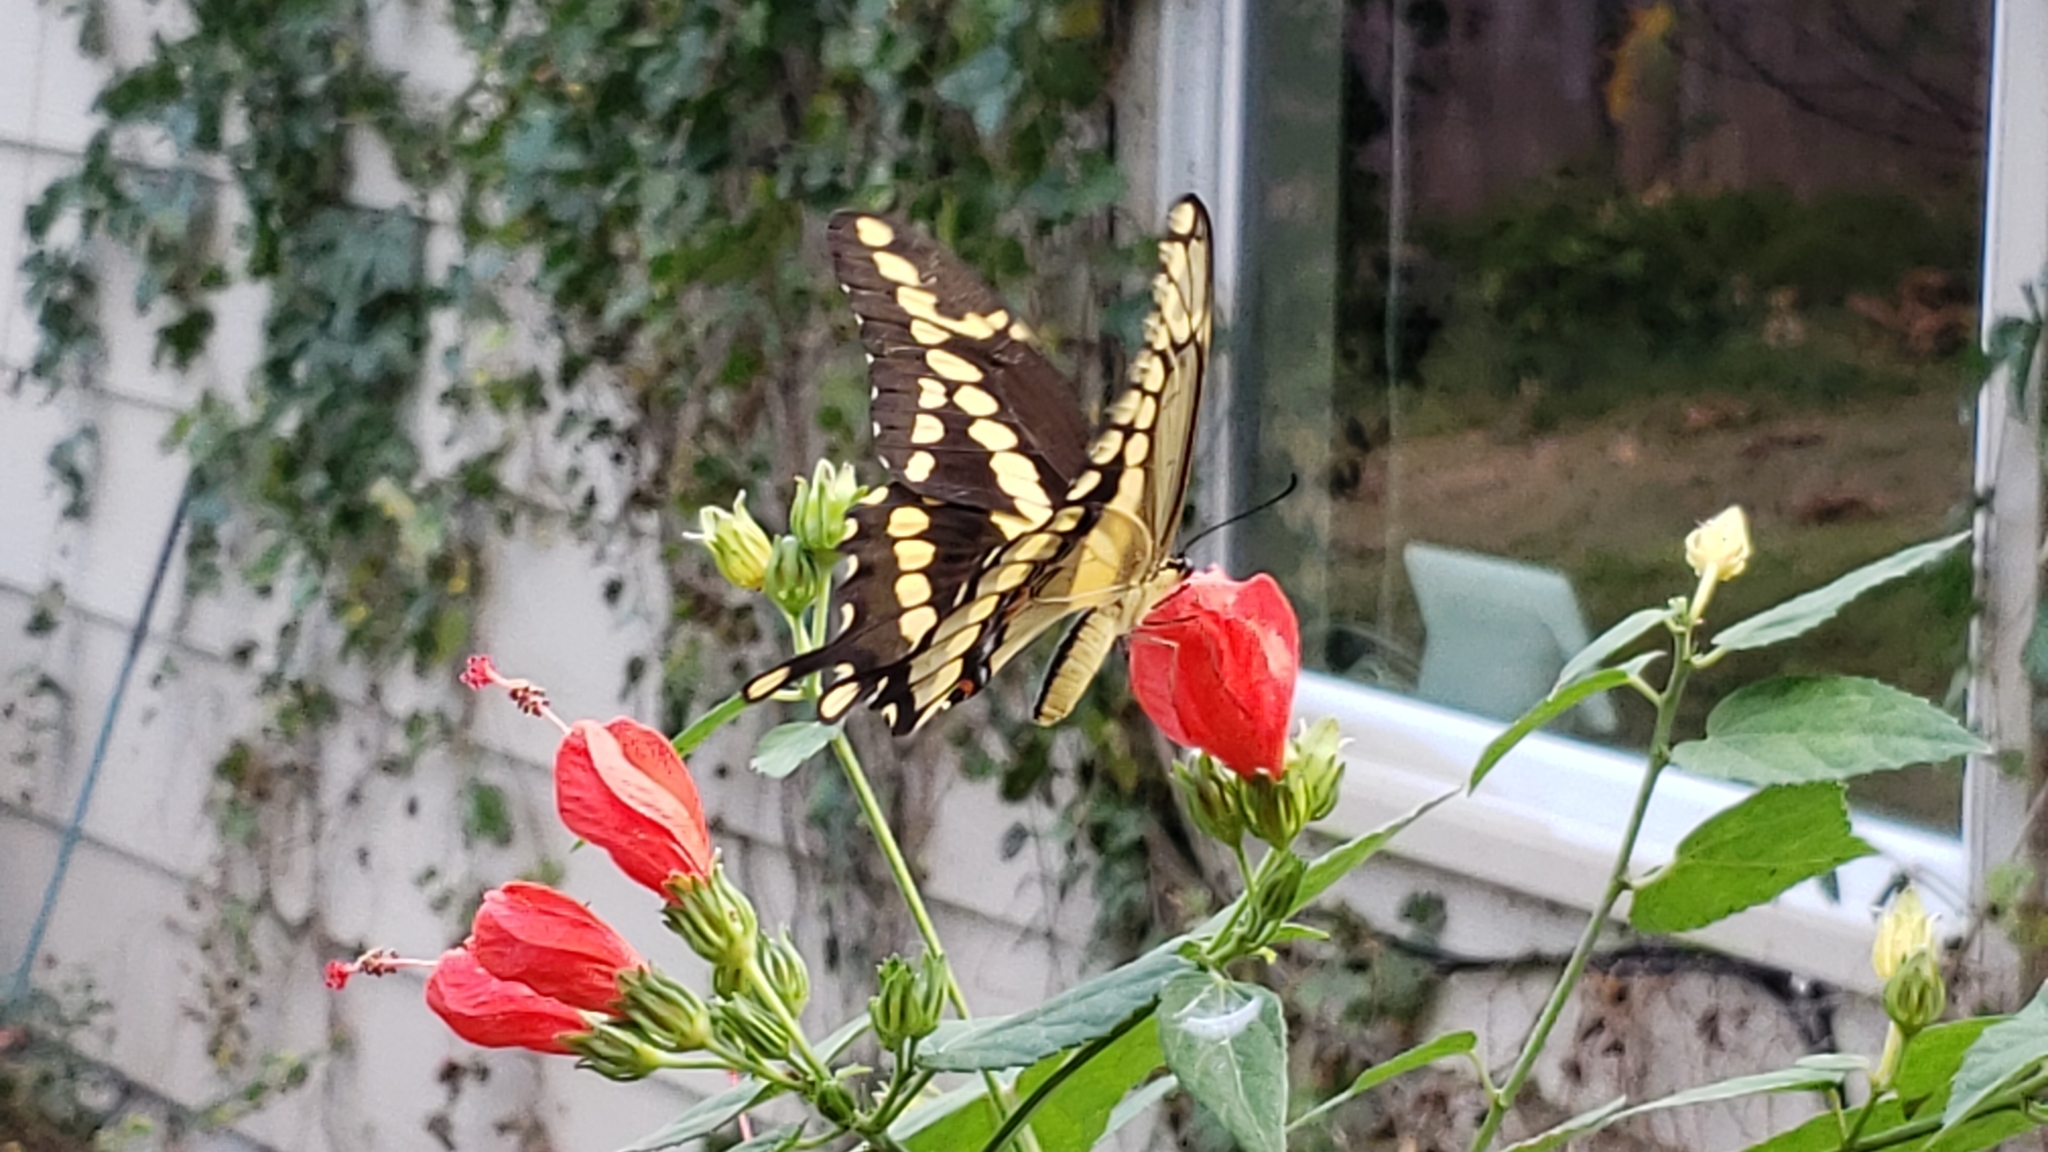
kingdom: Animalia
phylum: Arthropoda
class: Insecta
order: Lepidoptera
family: Papilionidae
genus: Papilio
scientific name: Papilio rumiko
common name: Western giant swallowtail
